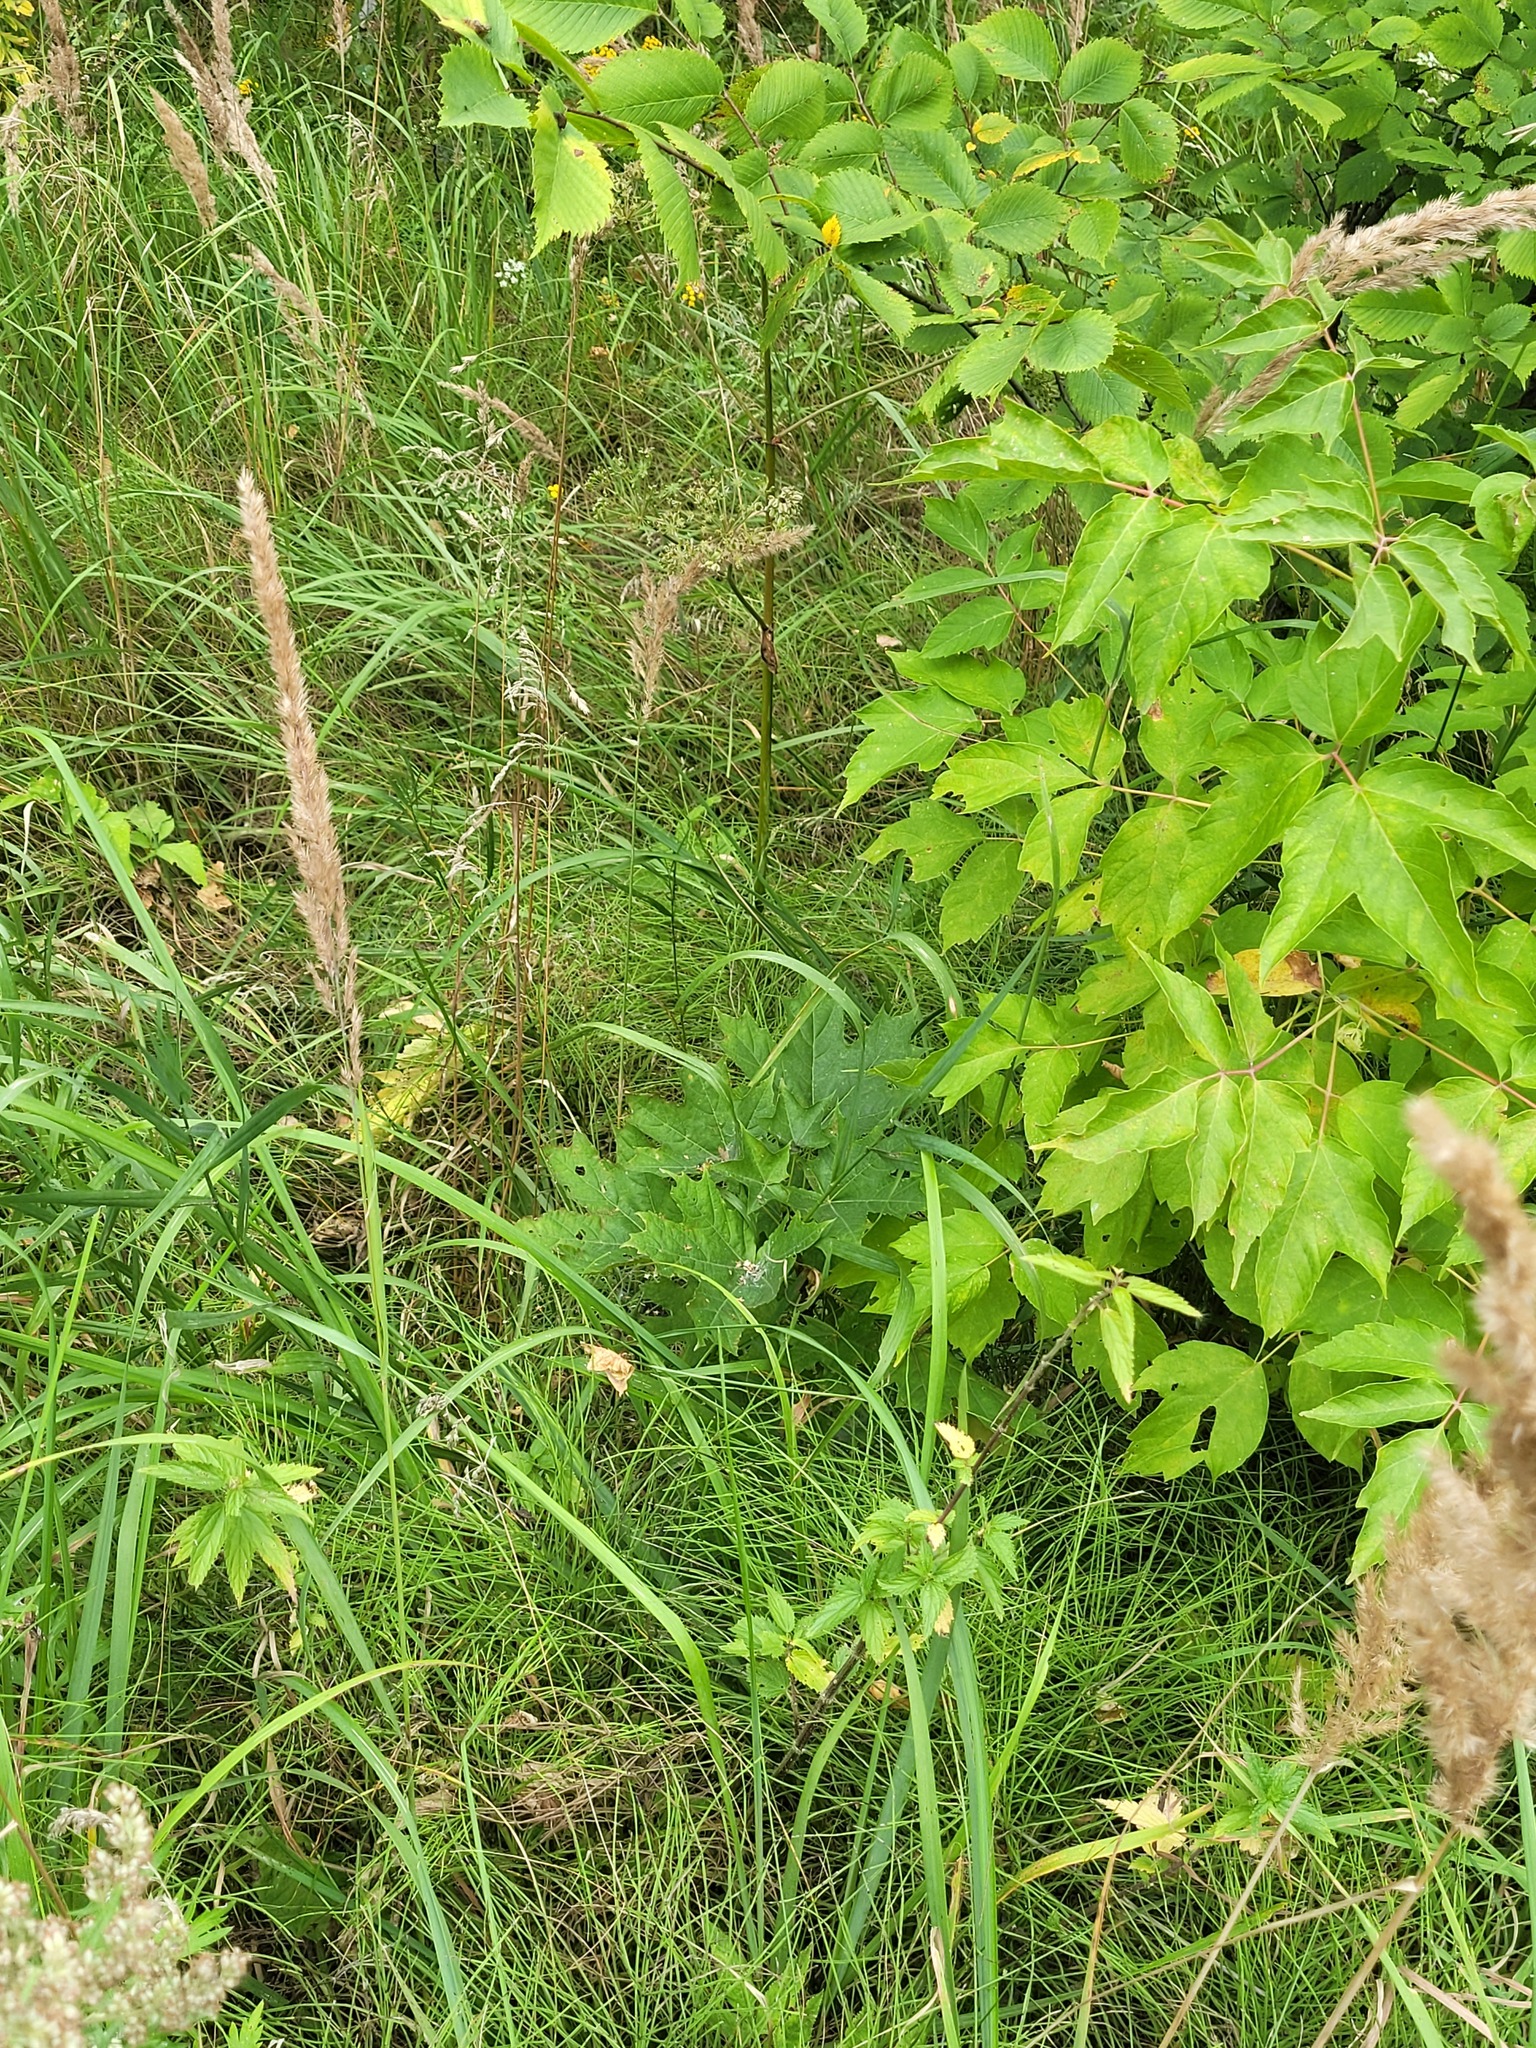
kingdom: Plantae
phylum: Tracheophyta
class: Magnoliopsida
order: Sapindales
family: Sapindaceae
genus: Acer
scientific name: Acer platanoides
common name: Norway maple
